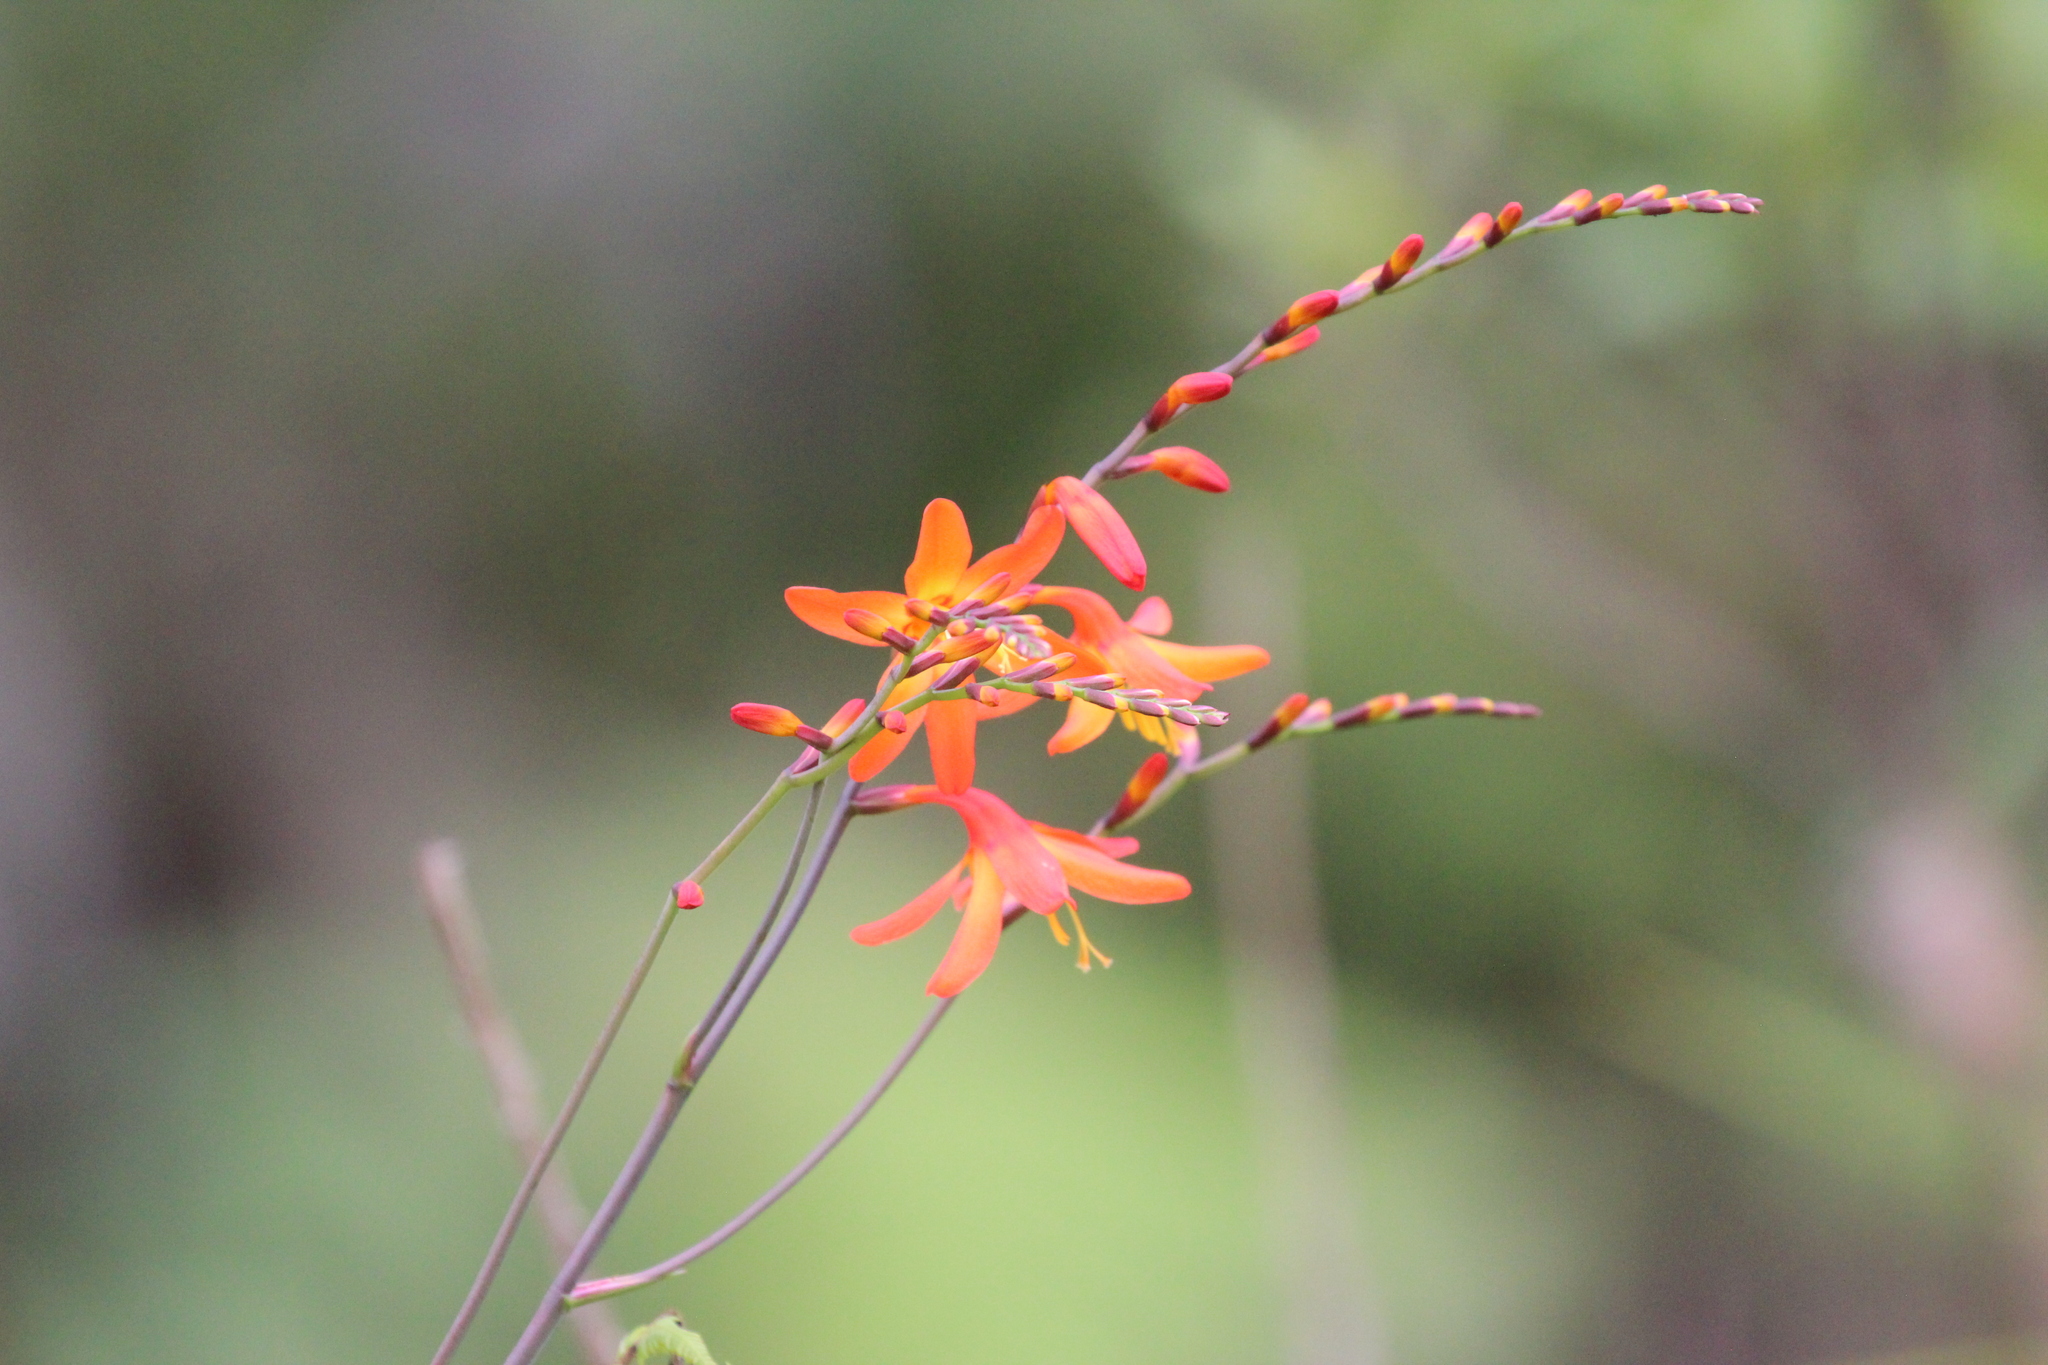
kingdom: Plantae
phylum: Tracheophyta
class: Liliopsida
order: Asparagales
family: Iridaceae
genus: Crocosmia
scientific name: Crocosmia crocosmiiflora
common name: Montbretia
